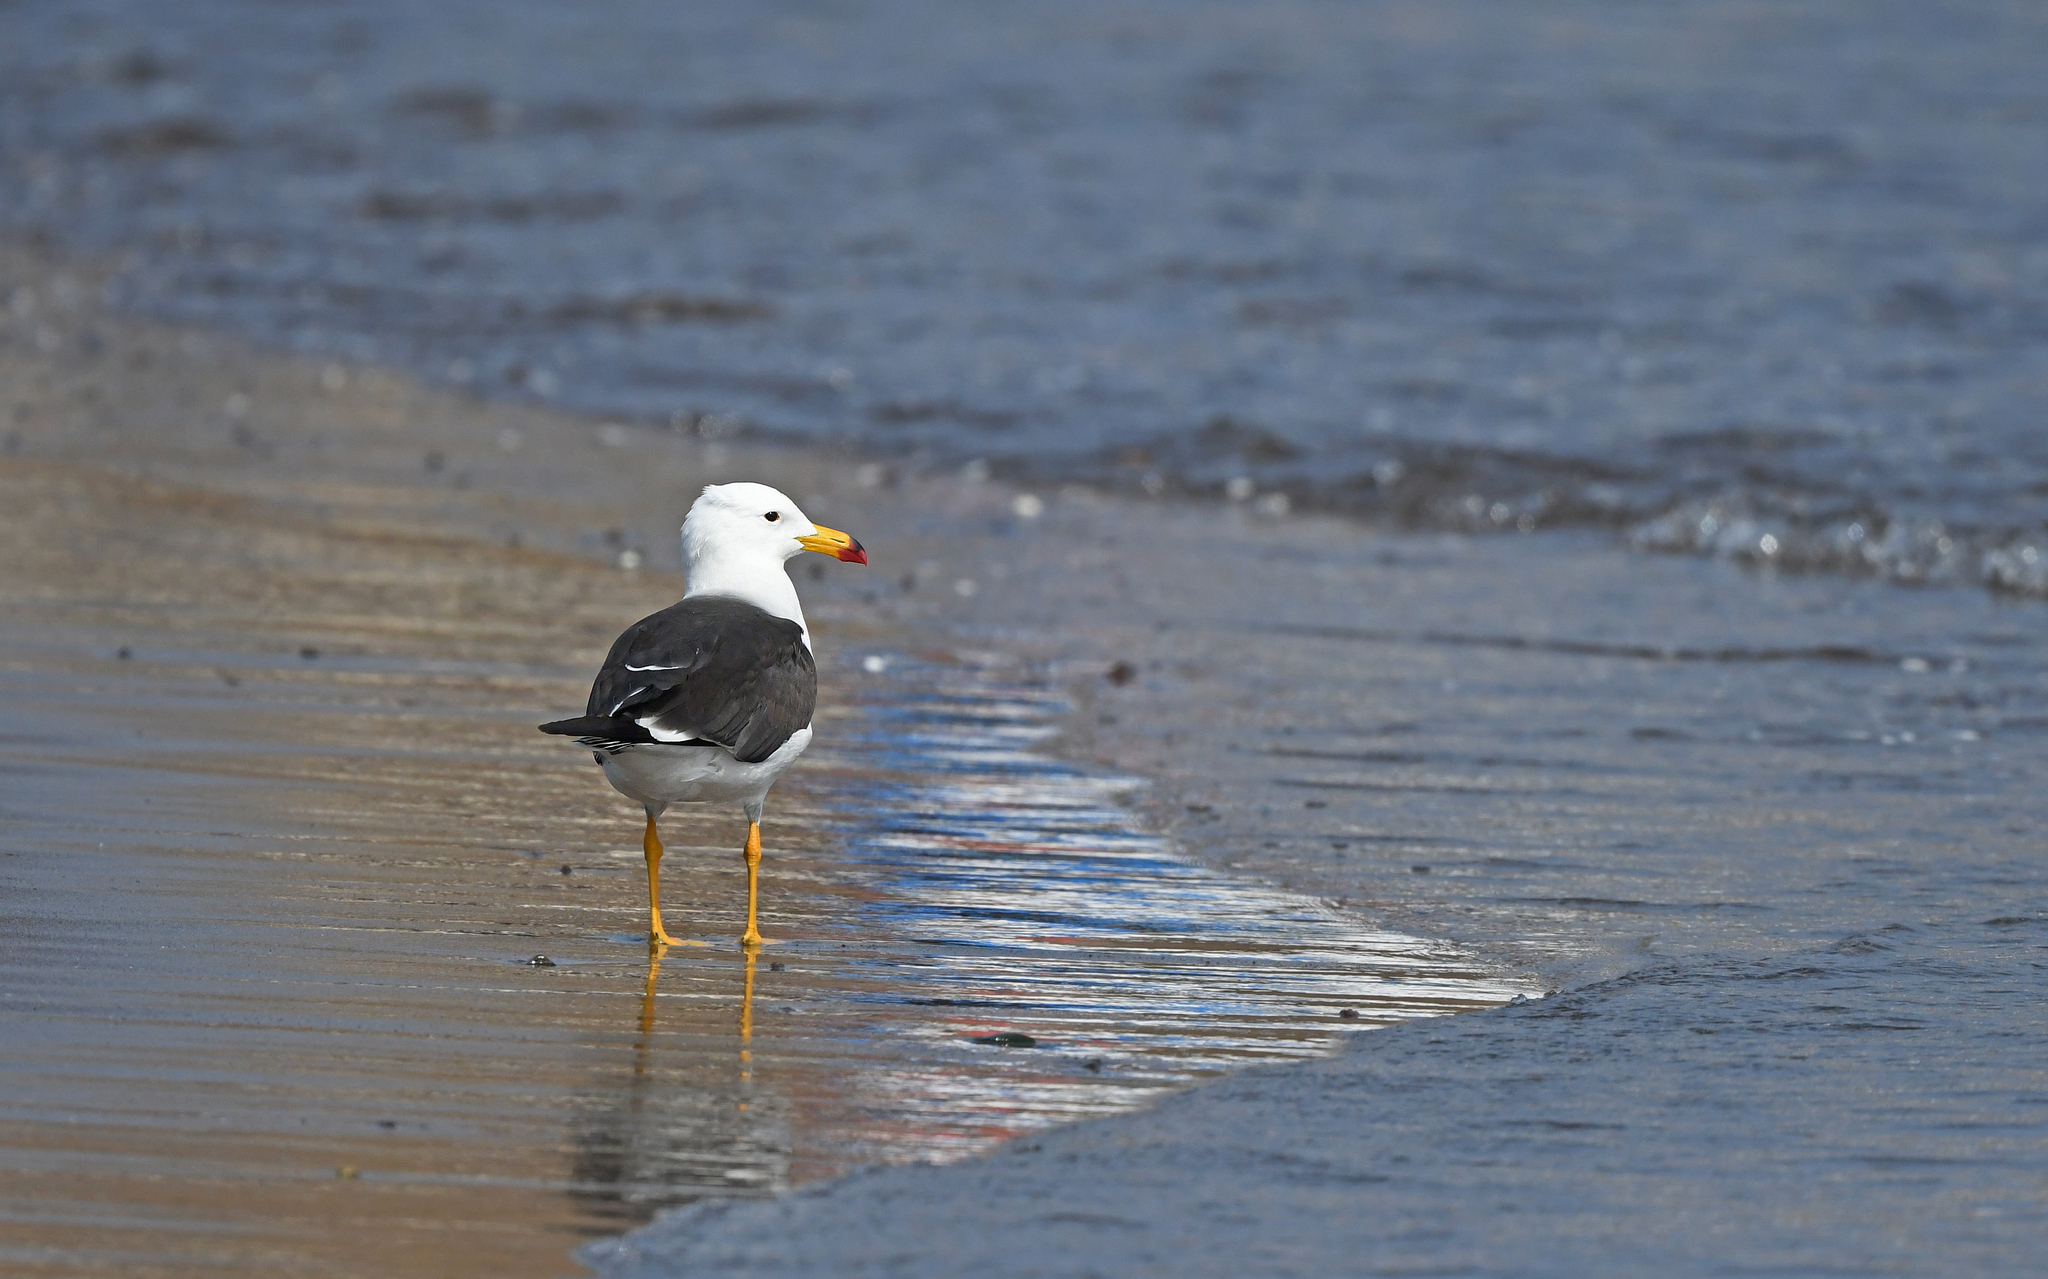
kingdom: Animalia
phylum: Chordata
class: Aves
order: Charadriiformes
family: Laridae
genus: Larus
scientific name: Larus belcheri
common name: Belcher's gull
